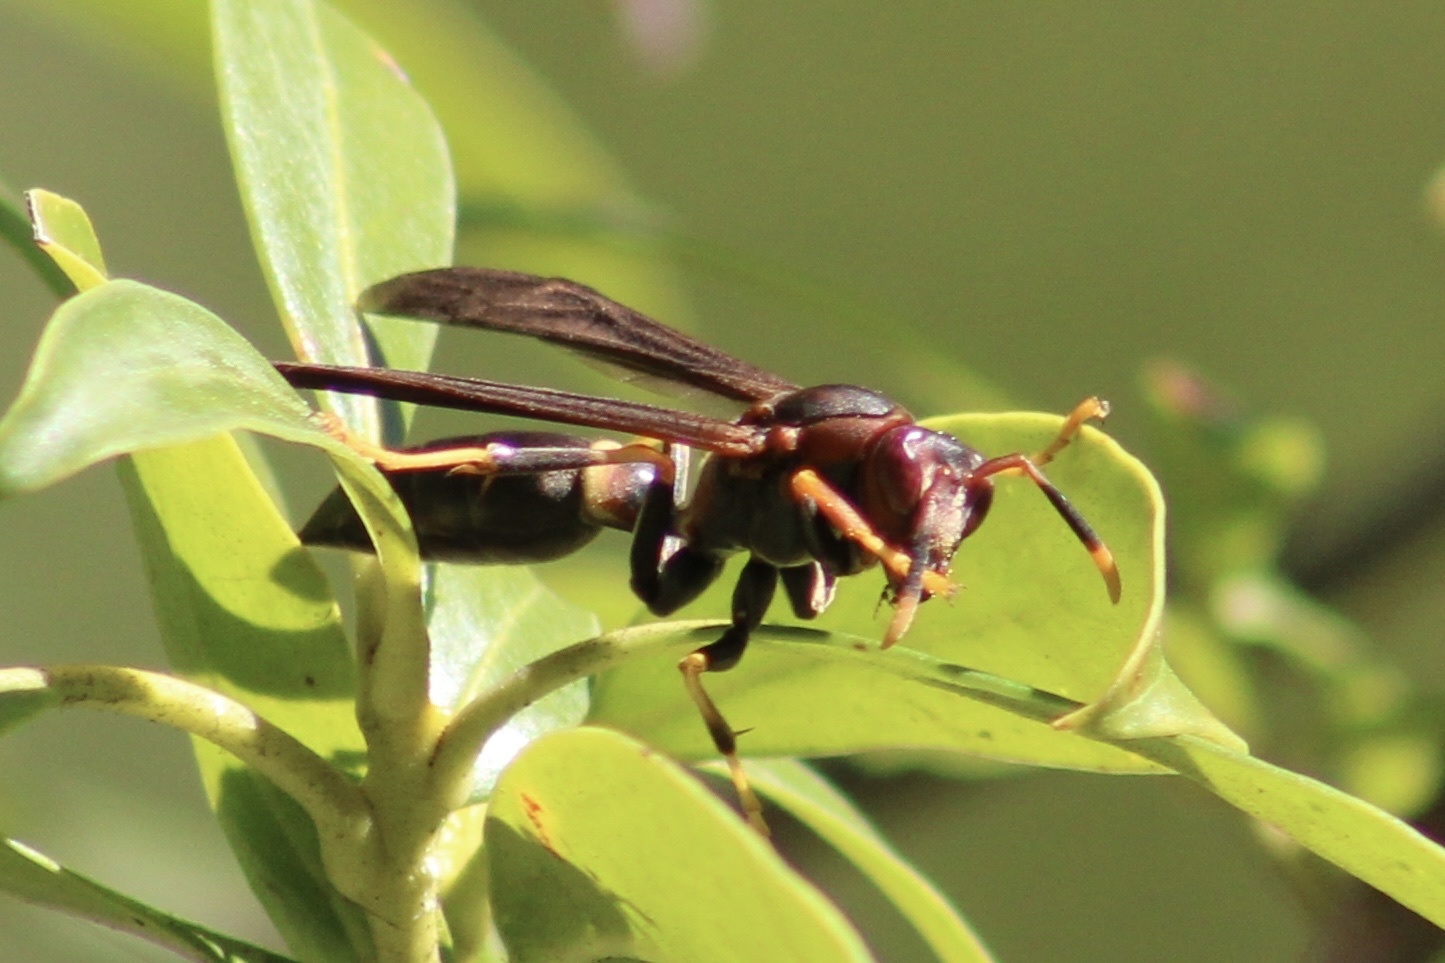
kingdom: Animalia
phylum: Arthropoda
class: Insecta
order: Hymenoptera
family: Eumenidae
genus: Polistes
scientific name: Polistes annularis
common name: Ringed paper wasp
